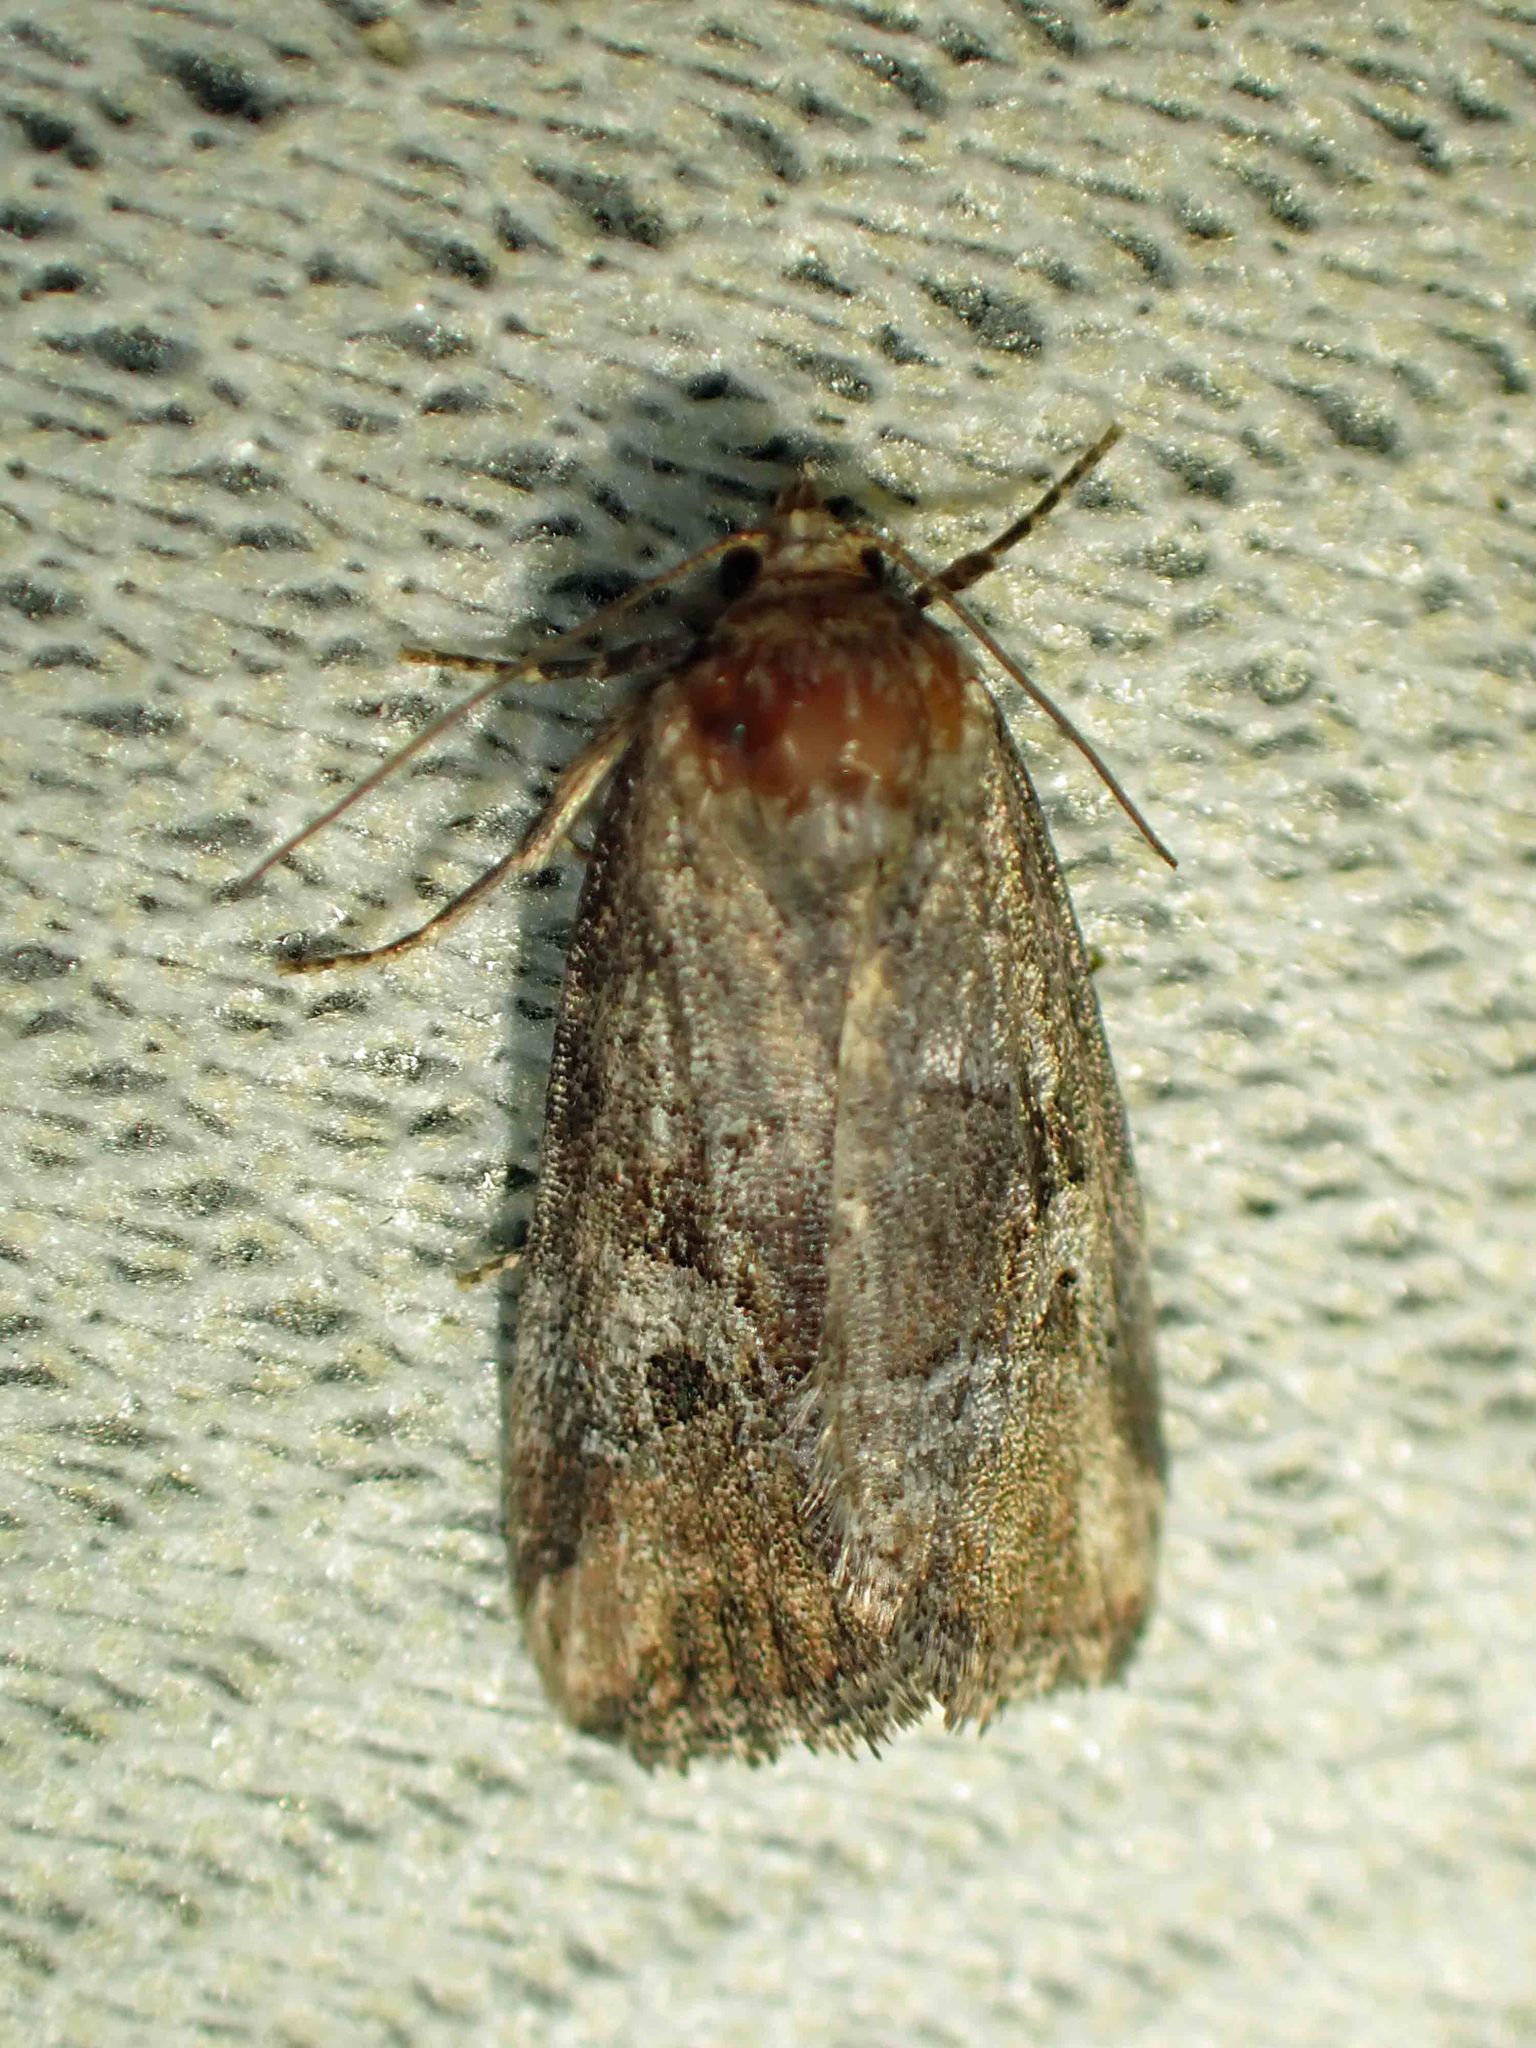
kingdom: Animalia
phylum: Arthropoda
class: Insecta
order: Lepidoptera
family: Noctuidae
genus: Elaphria
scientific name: Elaphria alapallida
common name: Pale-winged midget
